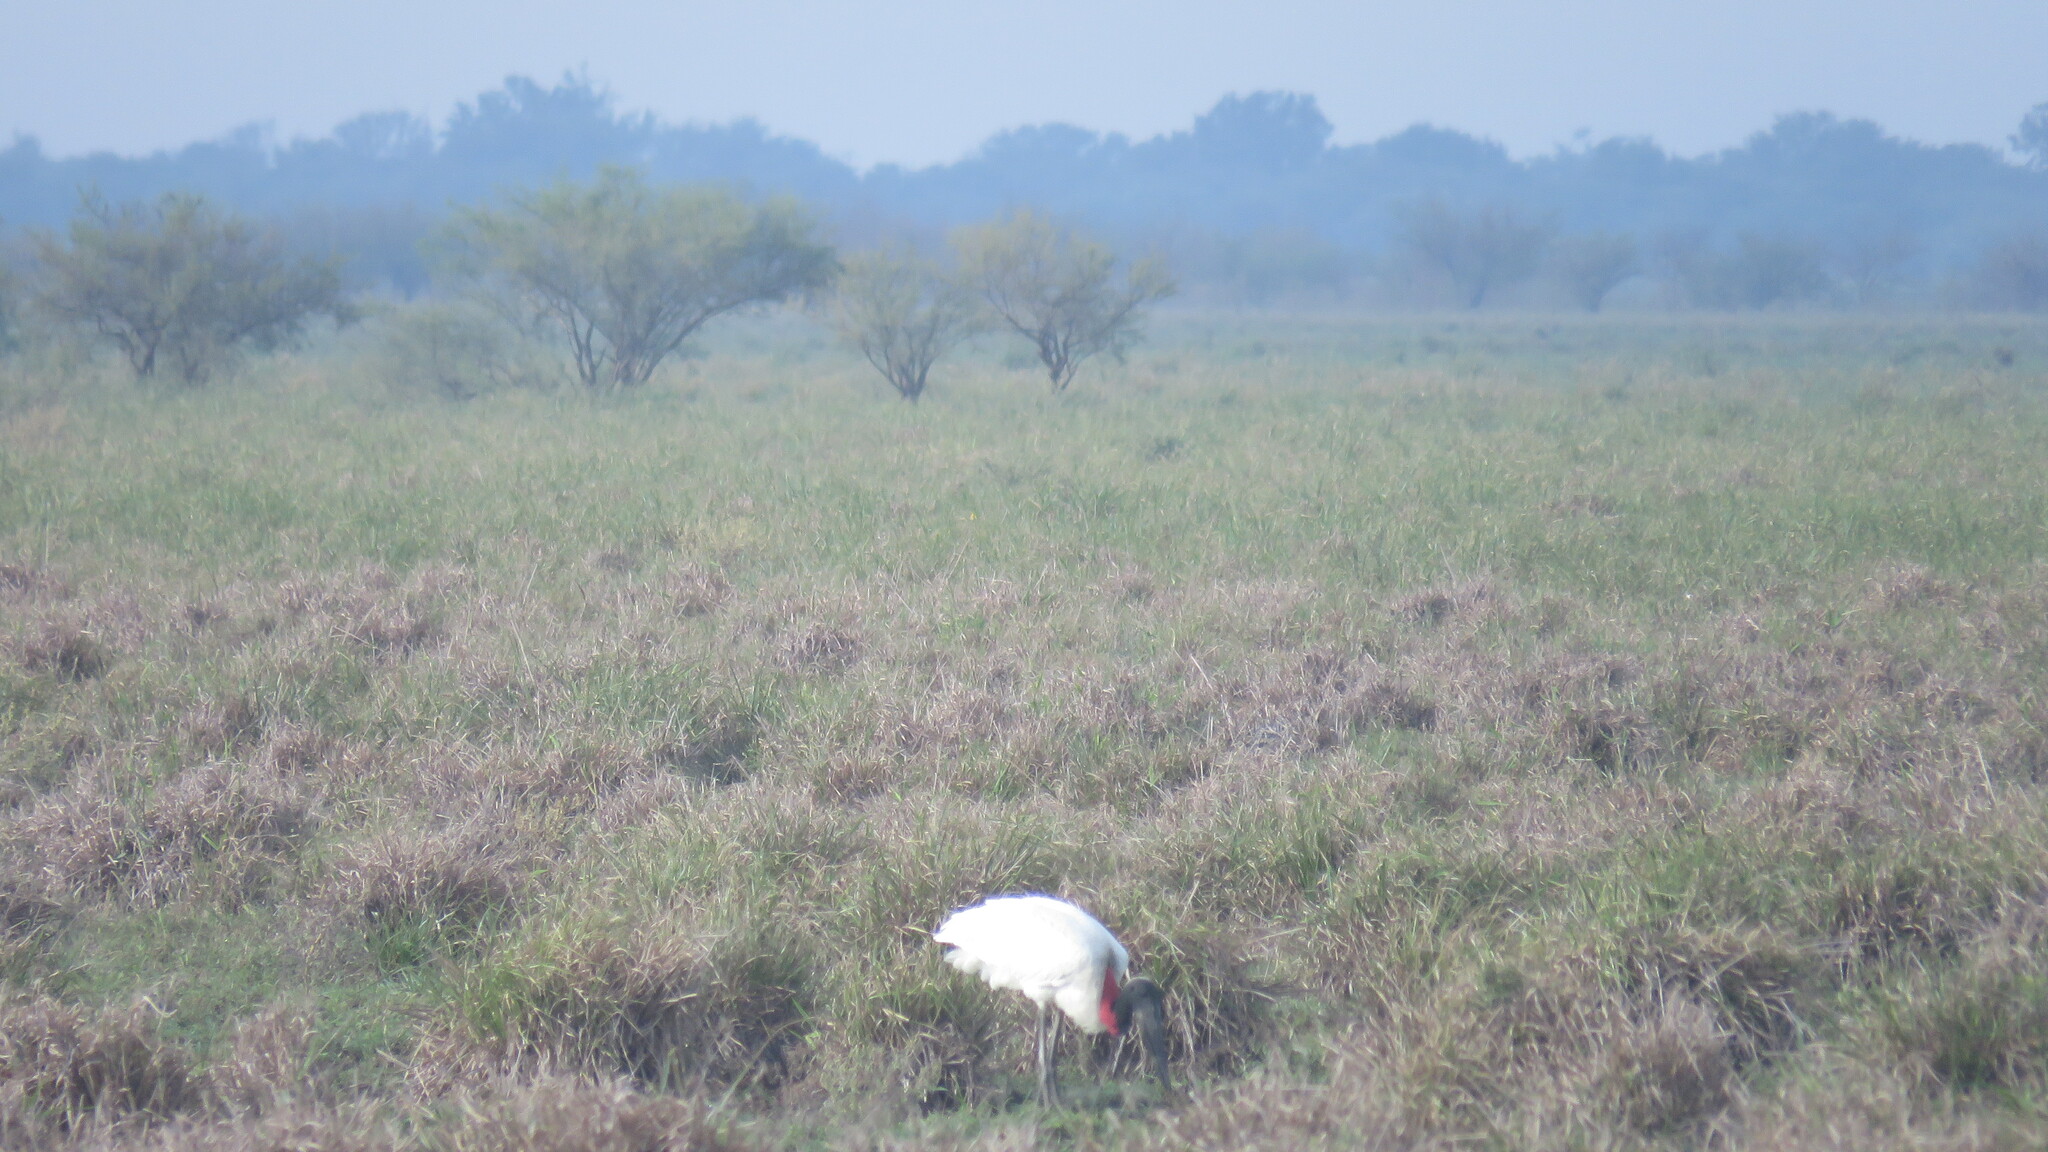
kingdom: Animalia
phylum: Chordata
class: Aves
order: Ciconiiformes
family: Ciconiidae
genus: Jabiru
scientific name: Jabiru mycteria
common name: Jabiru
